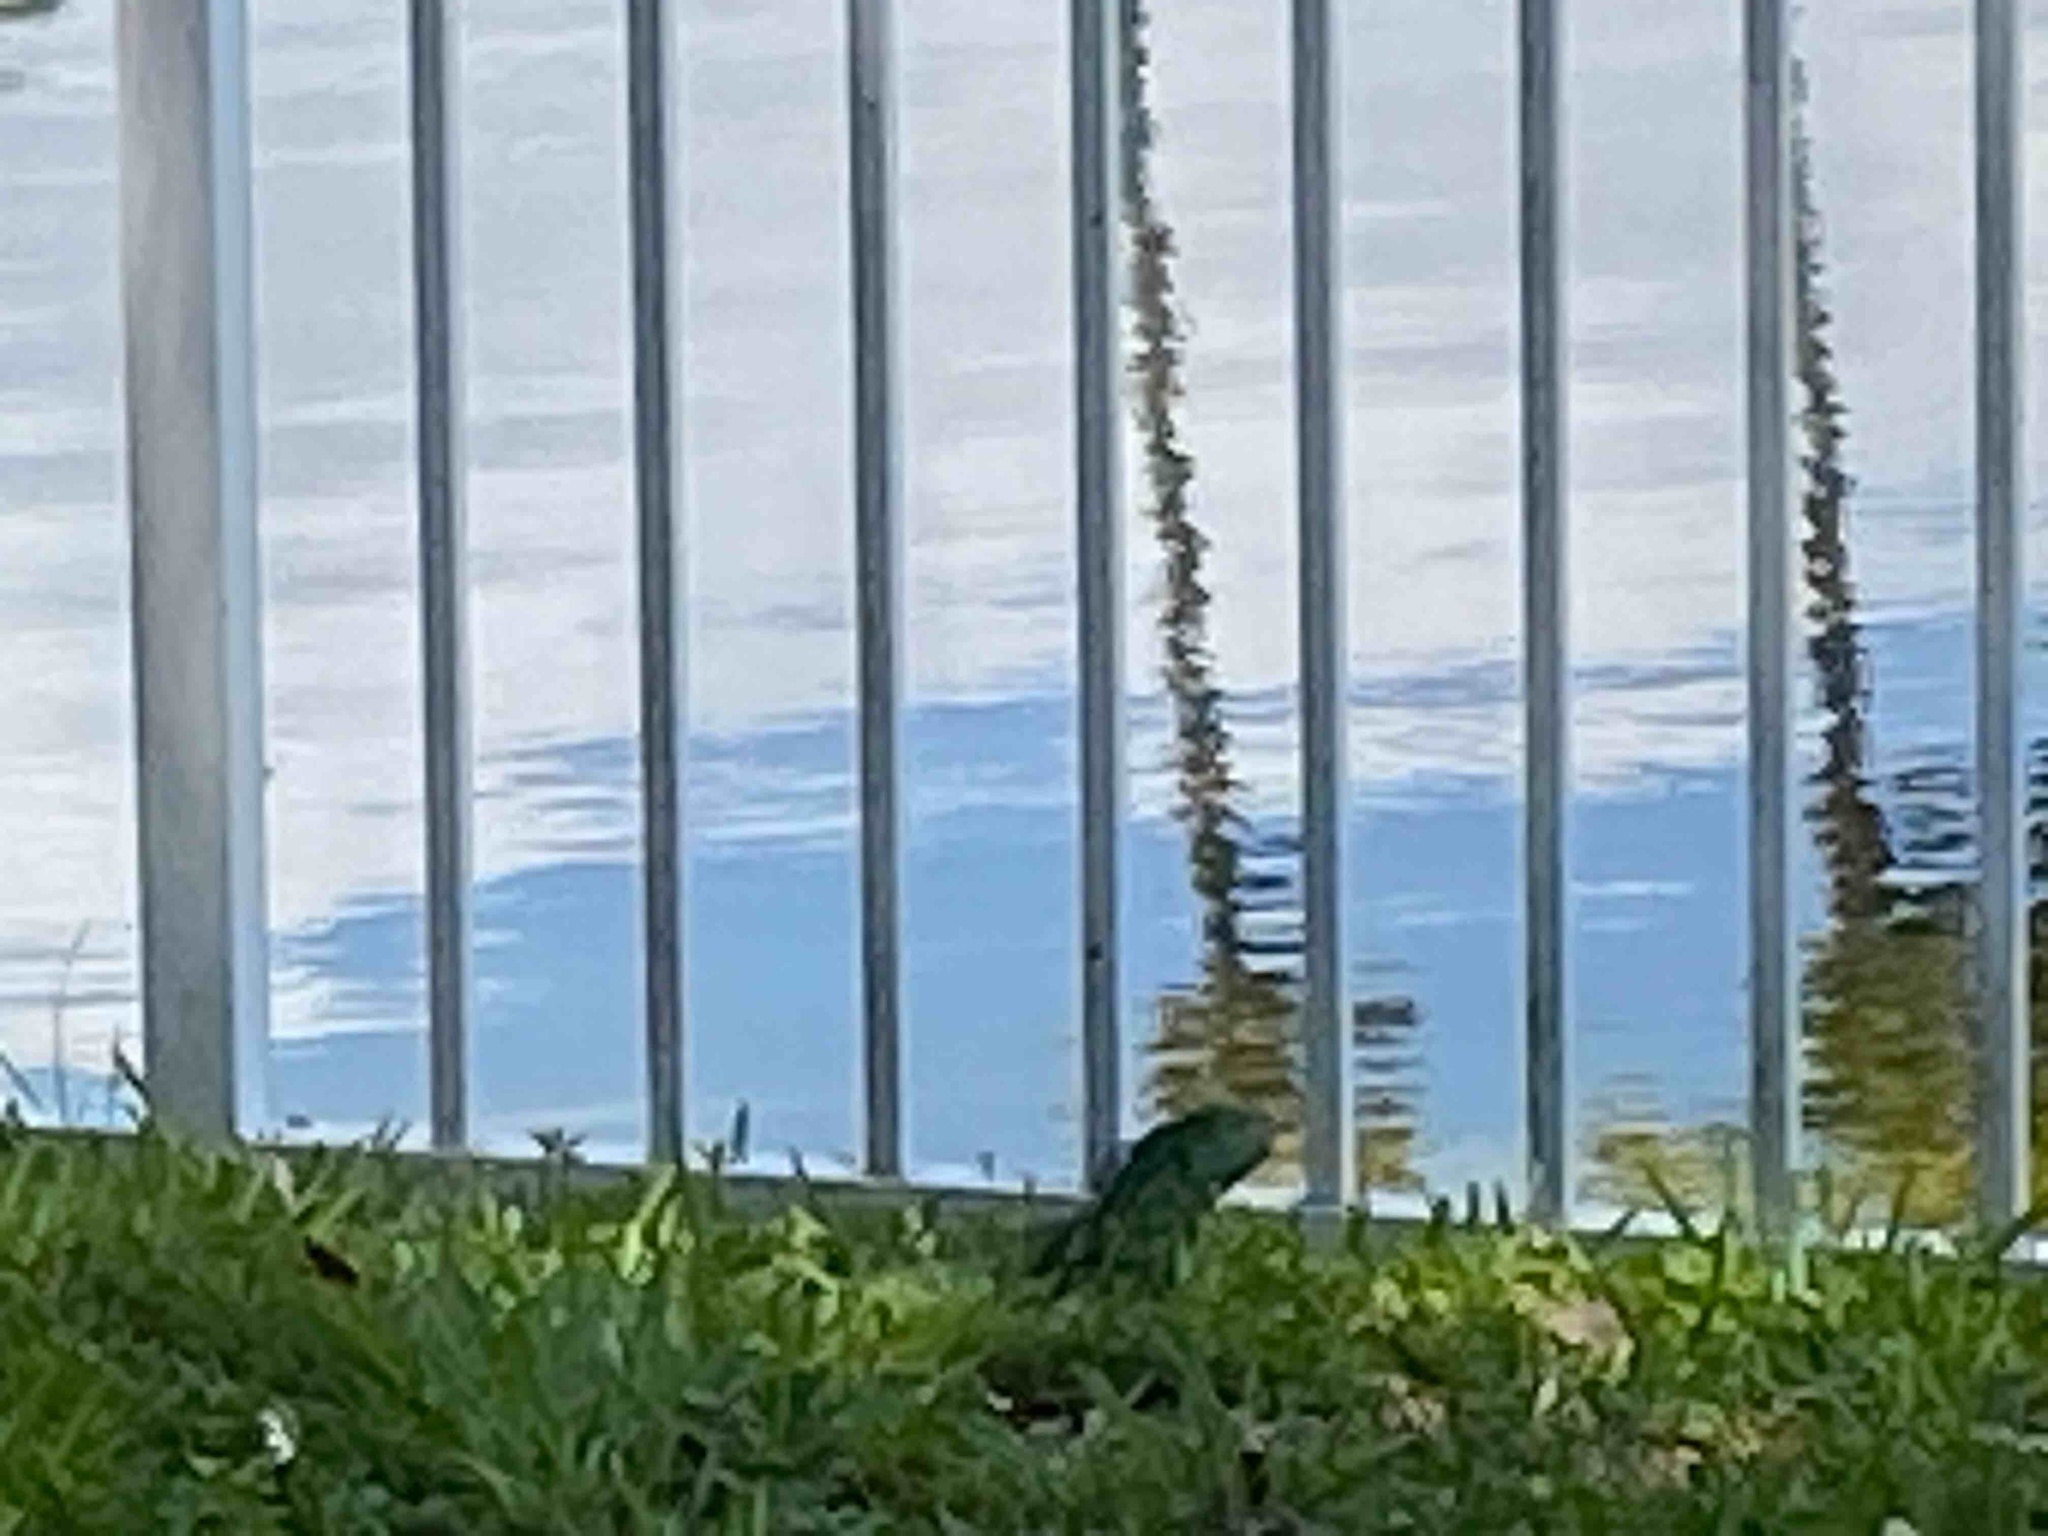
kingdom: Animalia
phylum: Chordata
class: Squamata
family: Iguanidae
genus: Iguana
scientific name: Iguana iguana
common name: Green iguana
